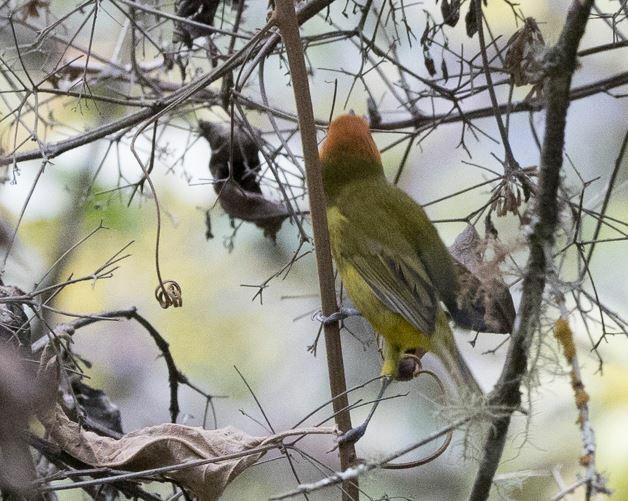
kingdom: Animalia
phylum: Chordata
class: Aves
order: Passeriformes
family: Thraupidae
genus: Thlypopsis
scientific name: Thlypopsis ruficeps
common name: Rust-and-yellow tanager
